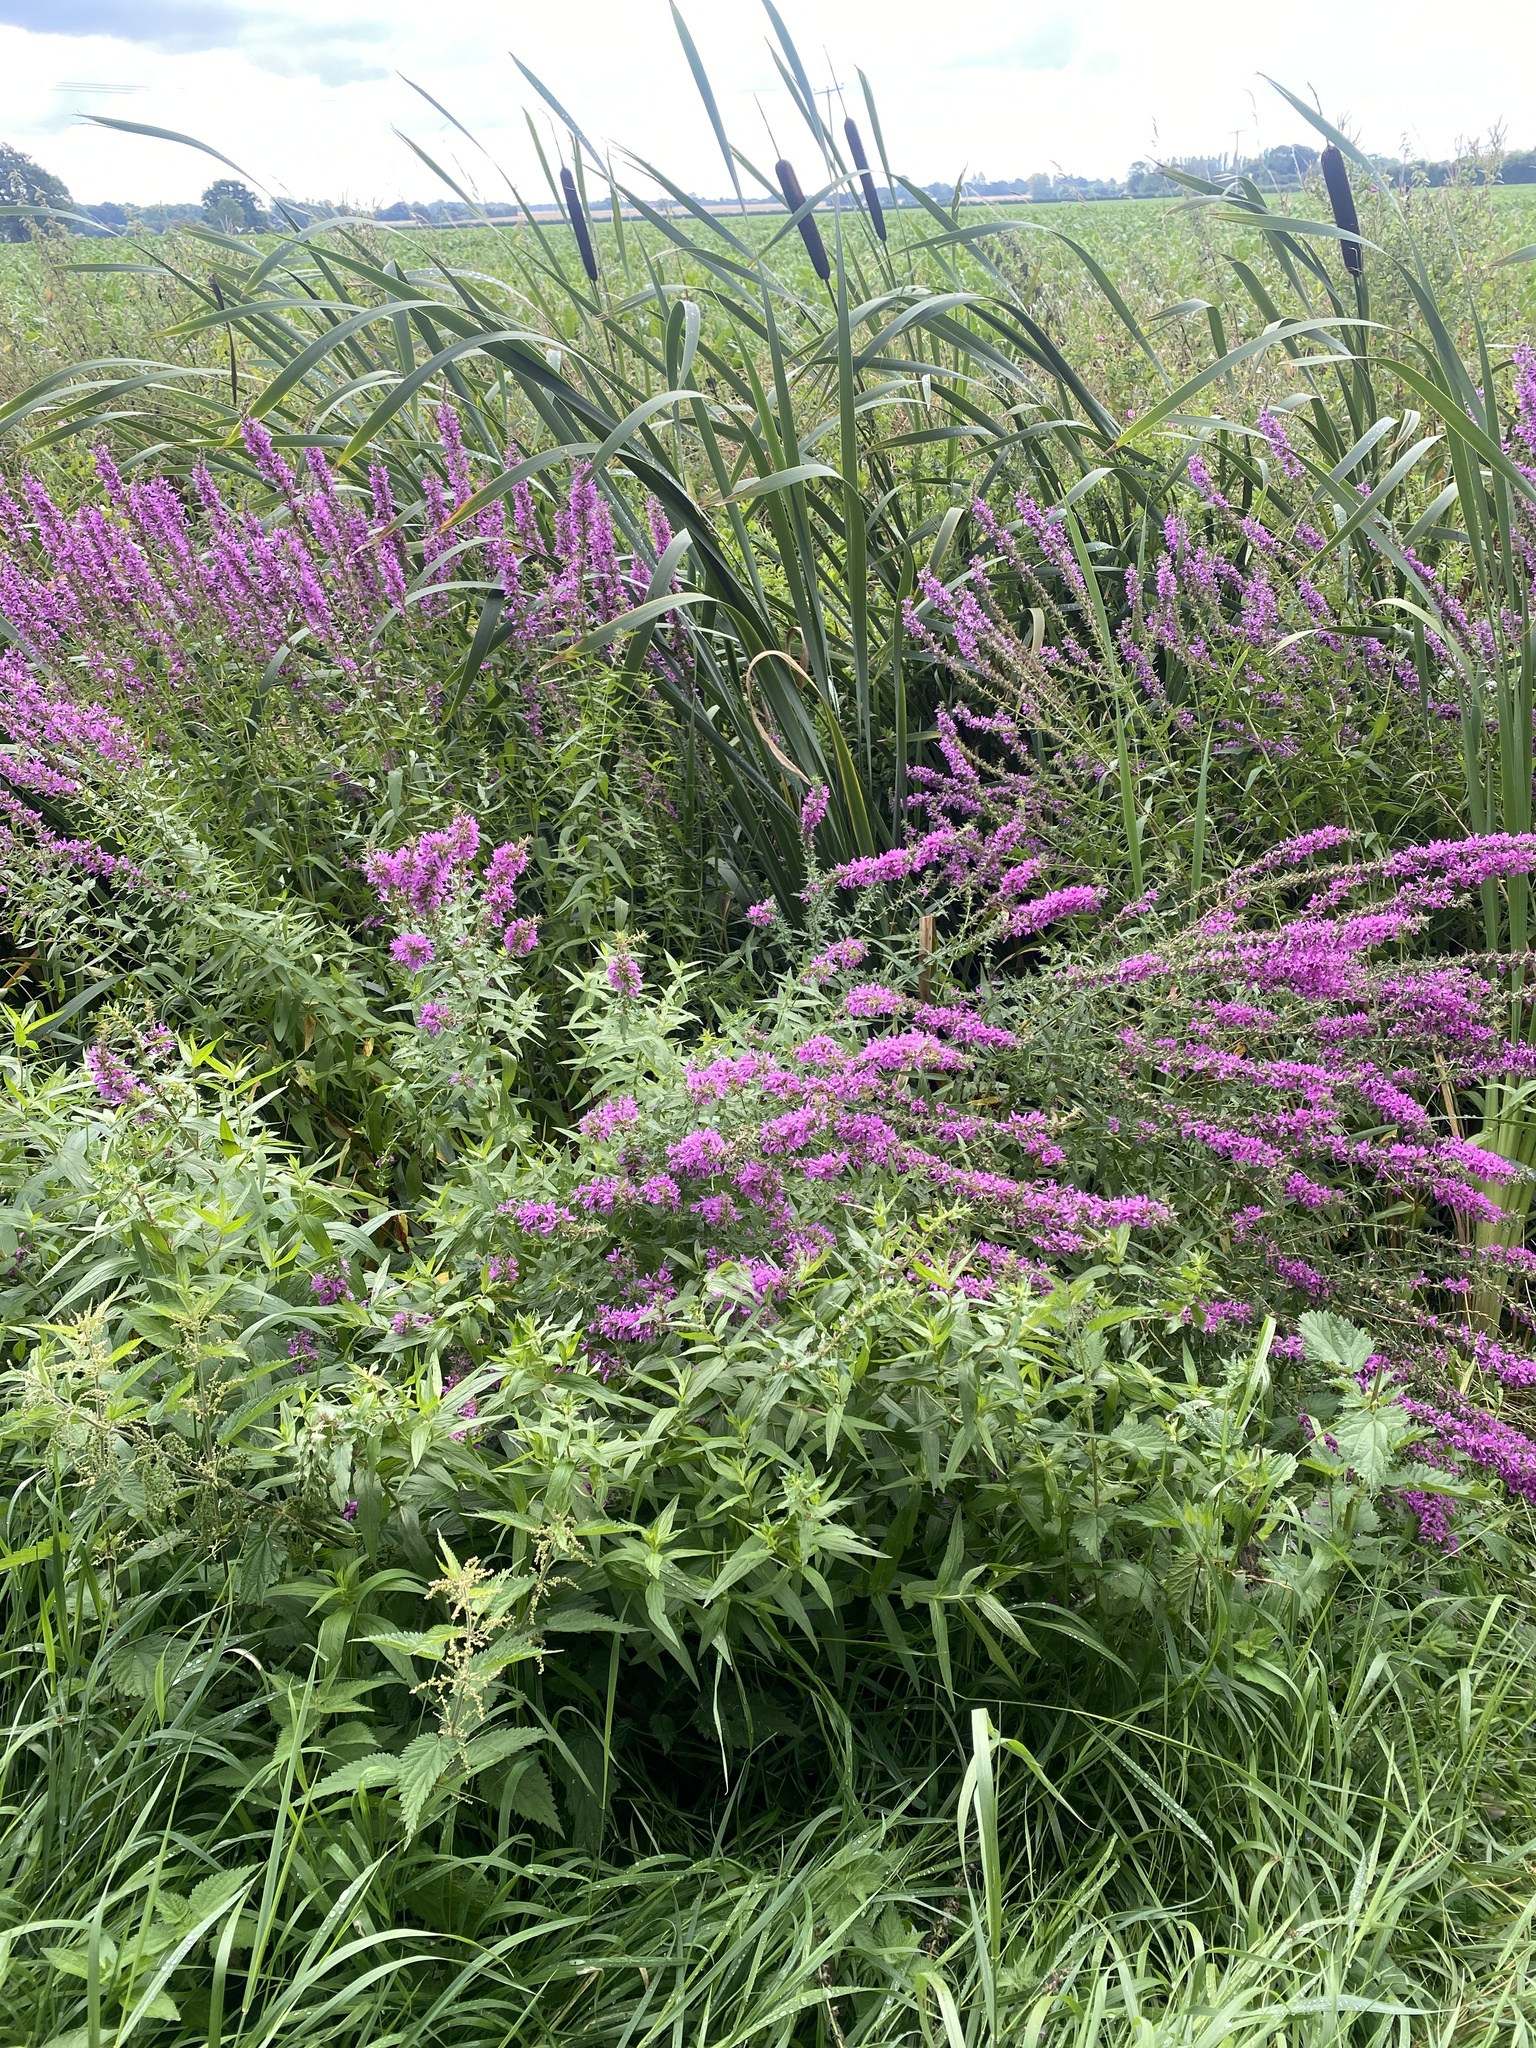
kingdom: Plantae
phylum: Tracheophyta
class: Magnoliopsida
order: Myrtales
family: Lythraceae
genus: Lythrum
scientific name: Lythrum salicaria
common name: Purple loosestrife
